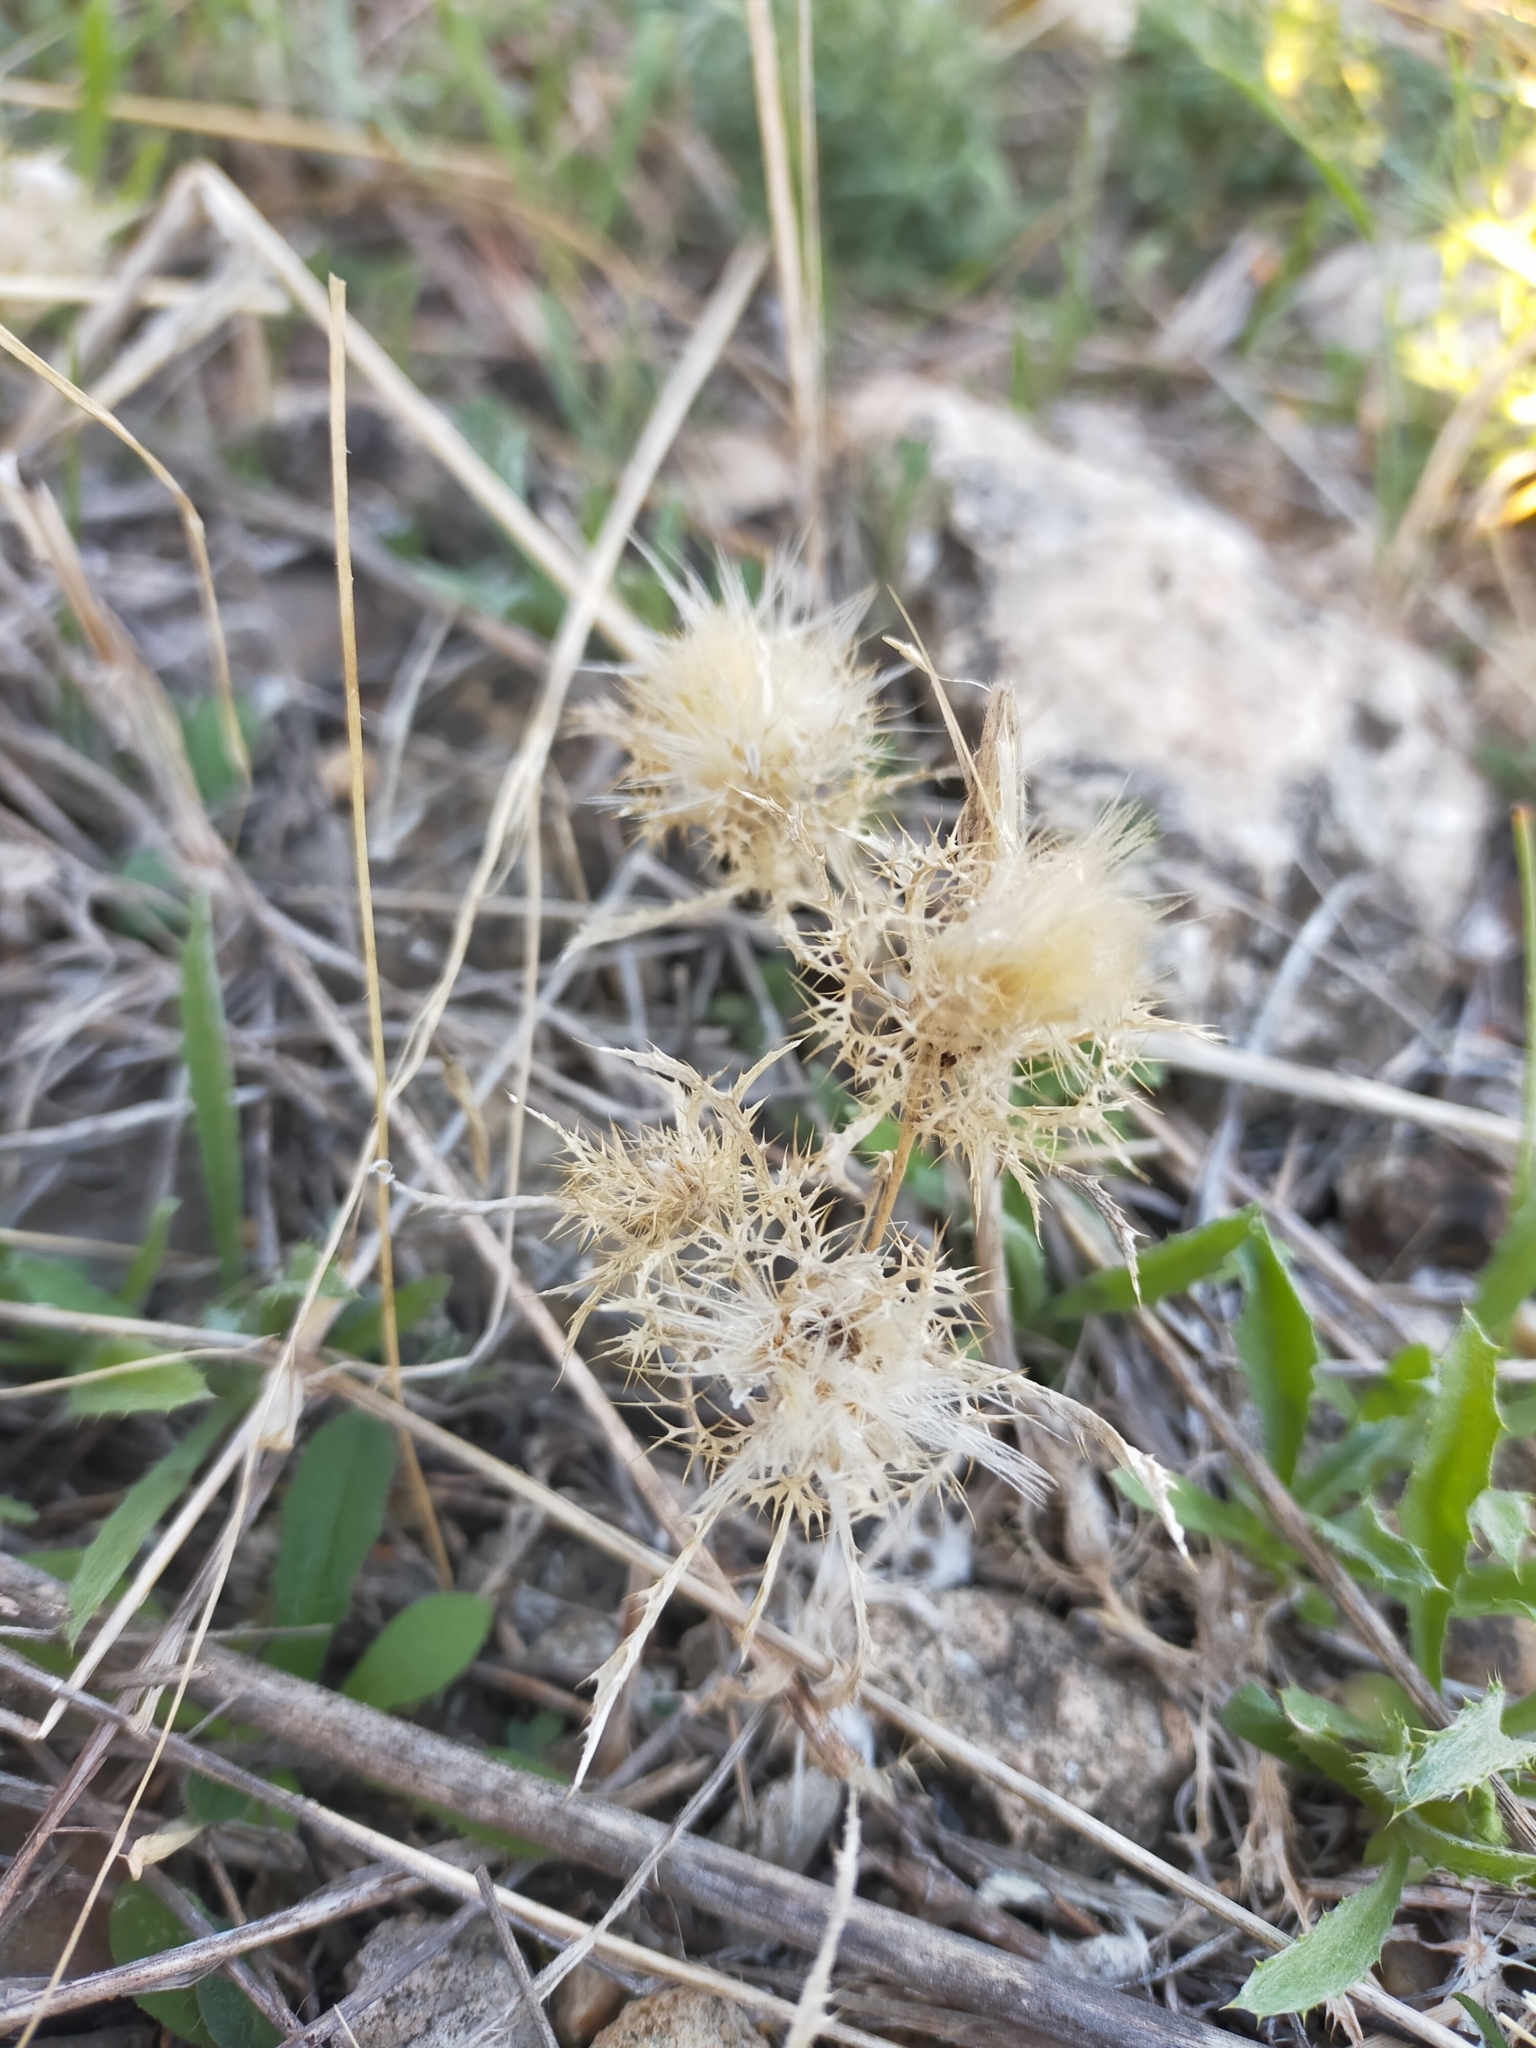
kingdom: Plantae
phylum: Tracheophyta
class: Magnoliopsida
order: Asterales
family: Asteraceae
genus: Atractylis
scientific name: Atractylis cancellata
